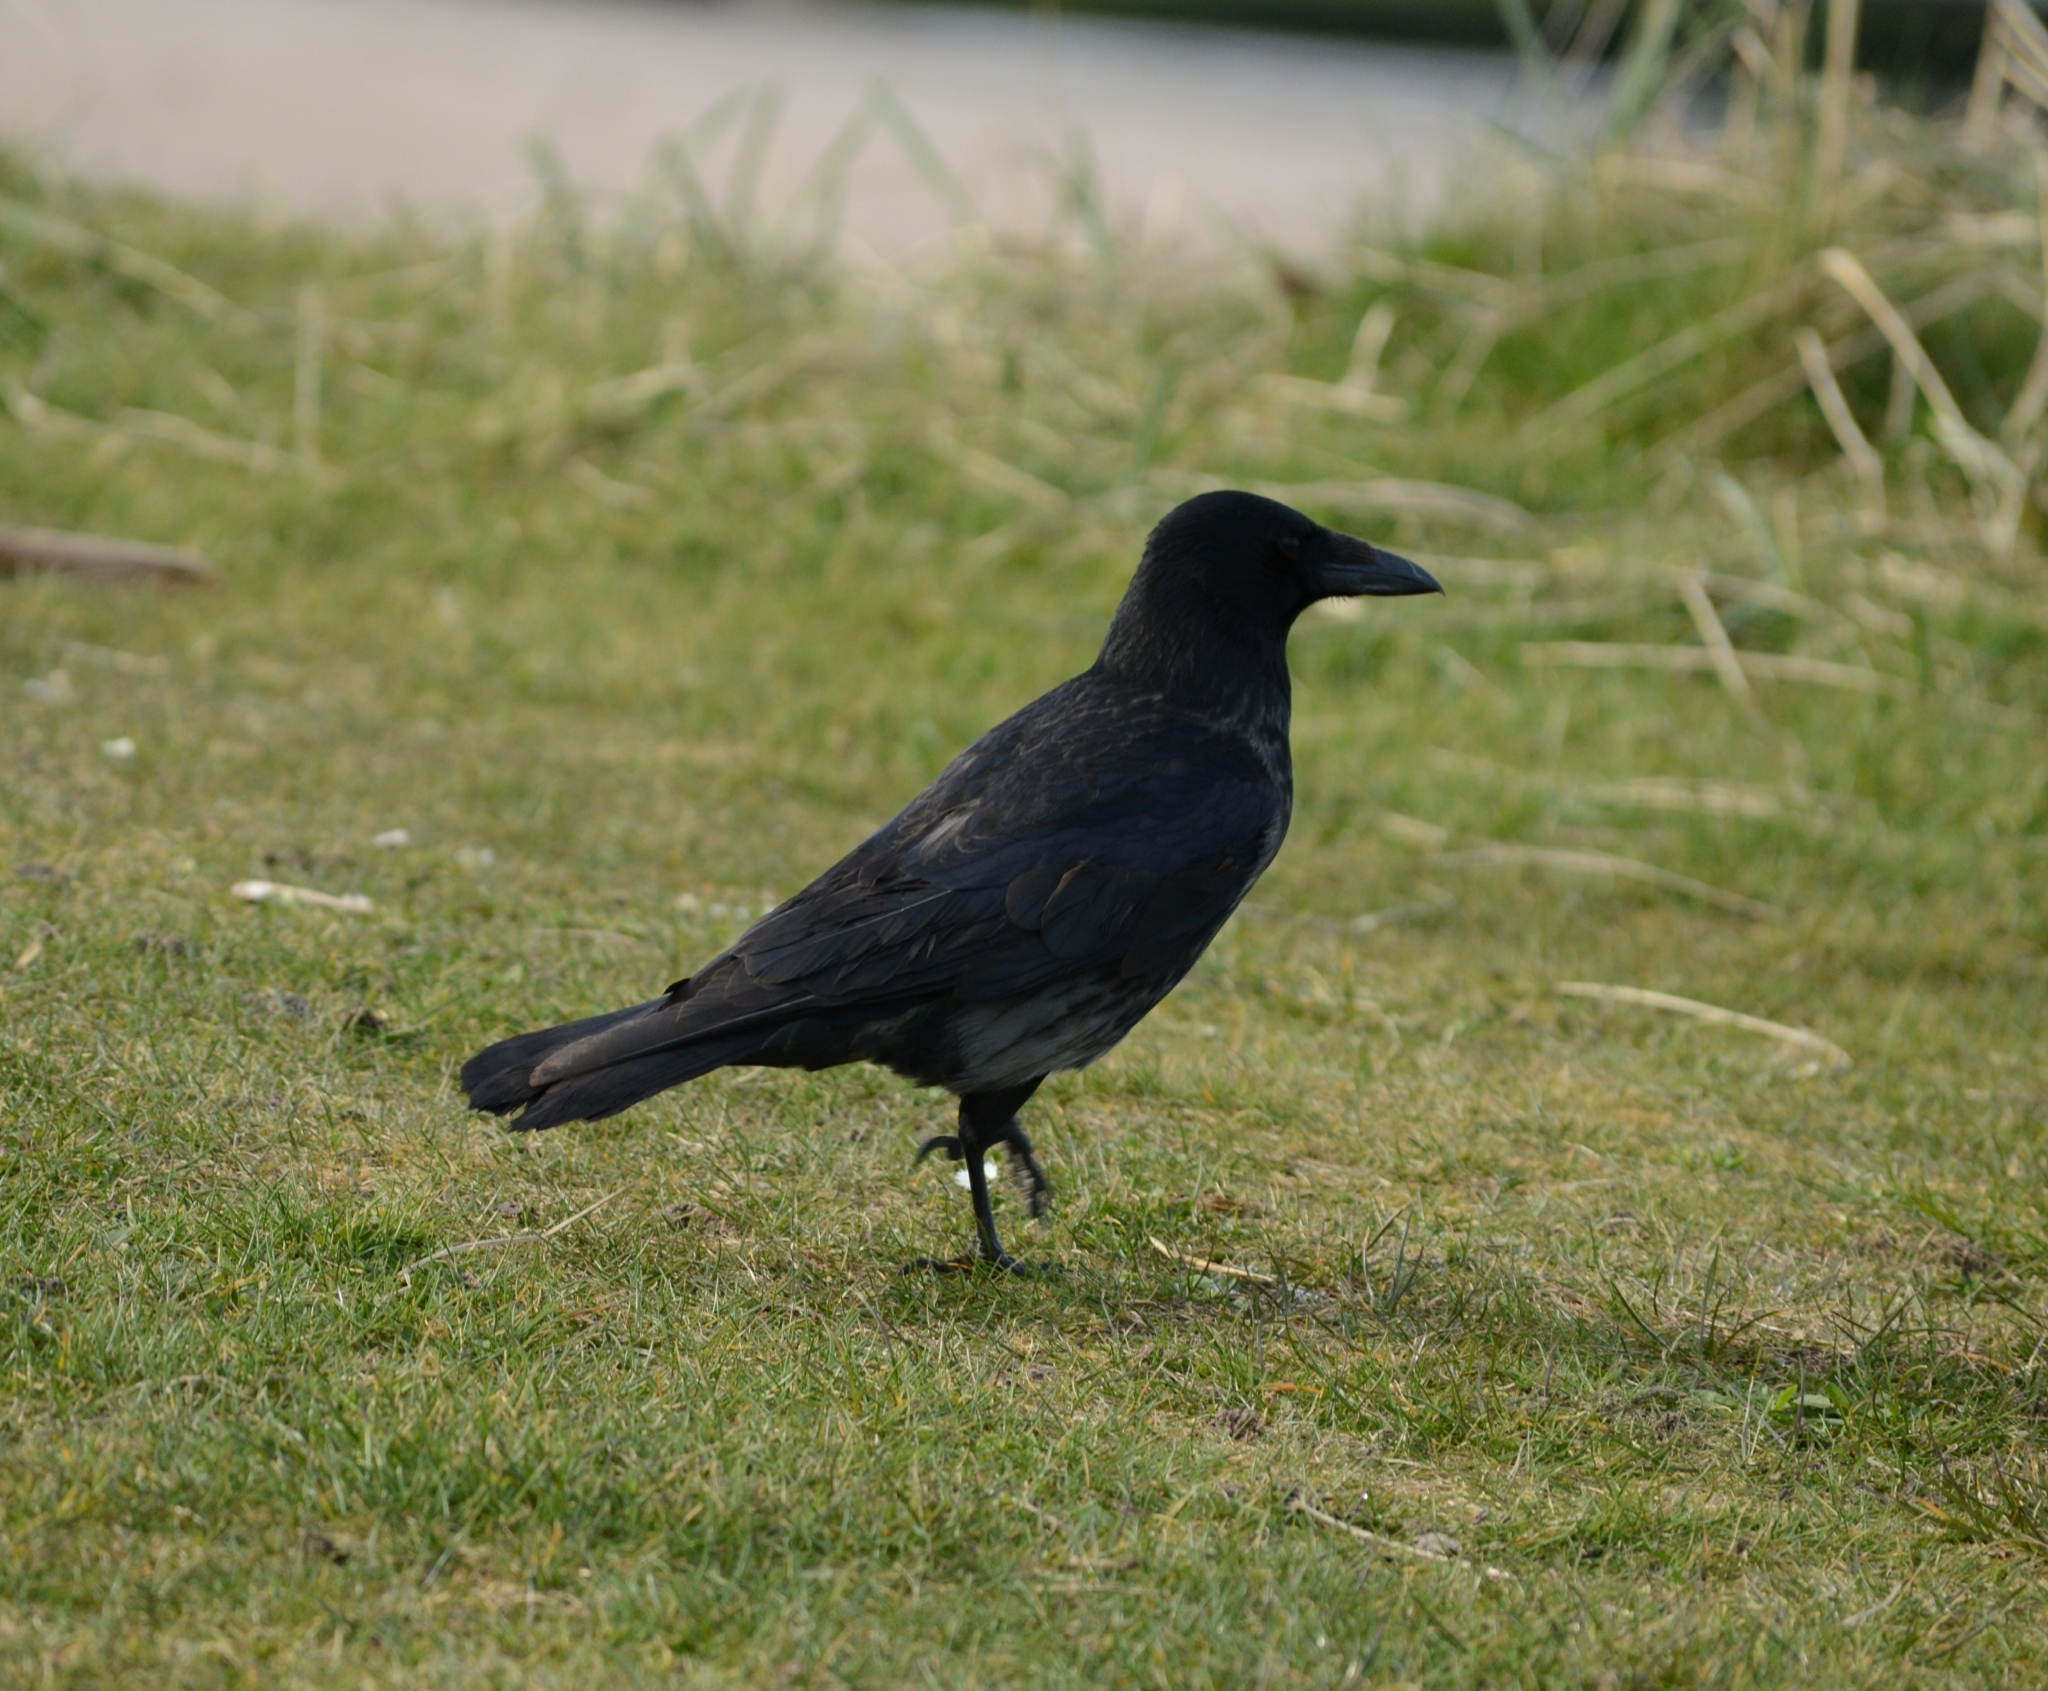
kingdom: Animalia
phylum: Chordata
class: Aves
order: Passeriformes
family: Corvidae
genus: Corvus
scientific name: Corvus
